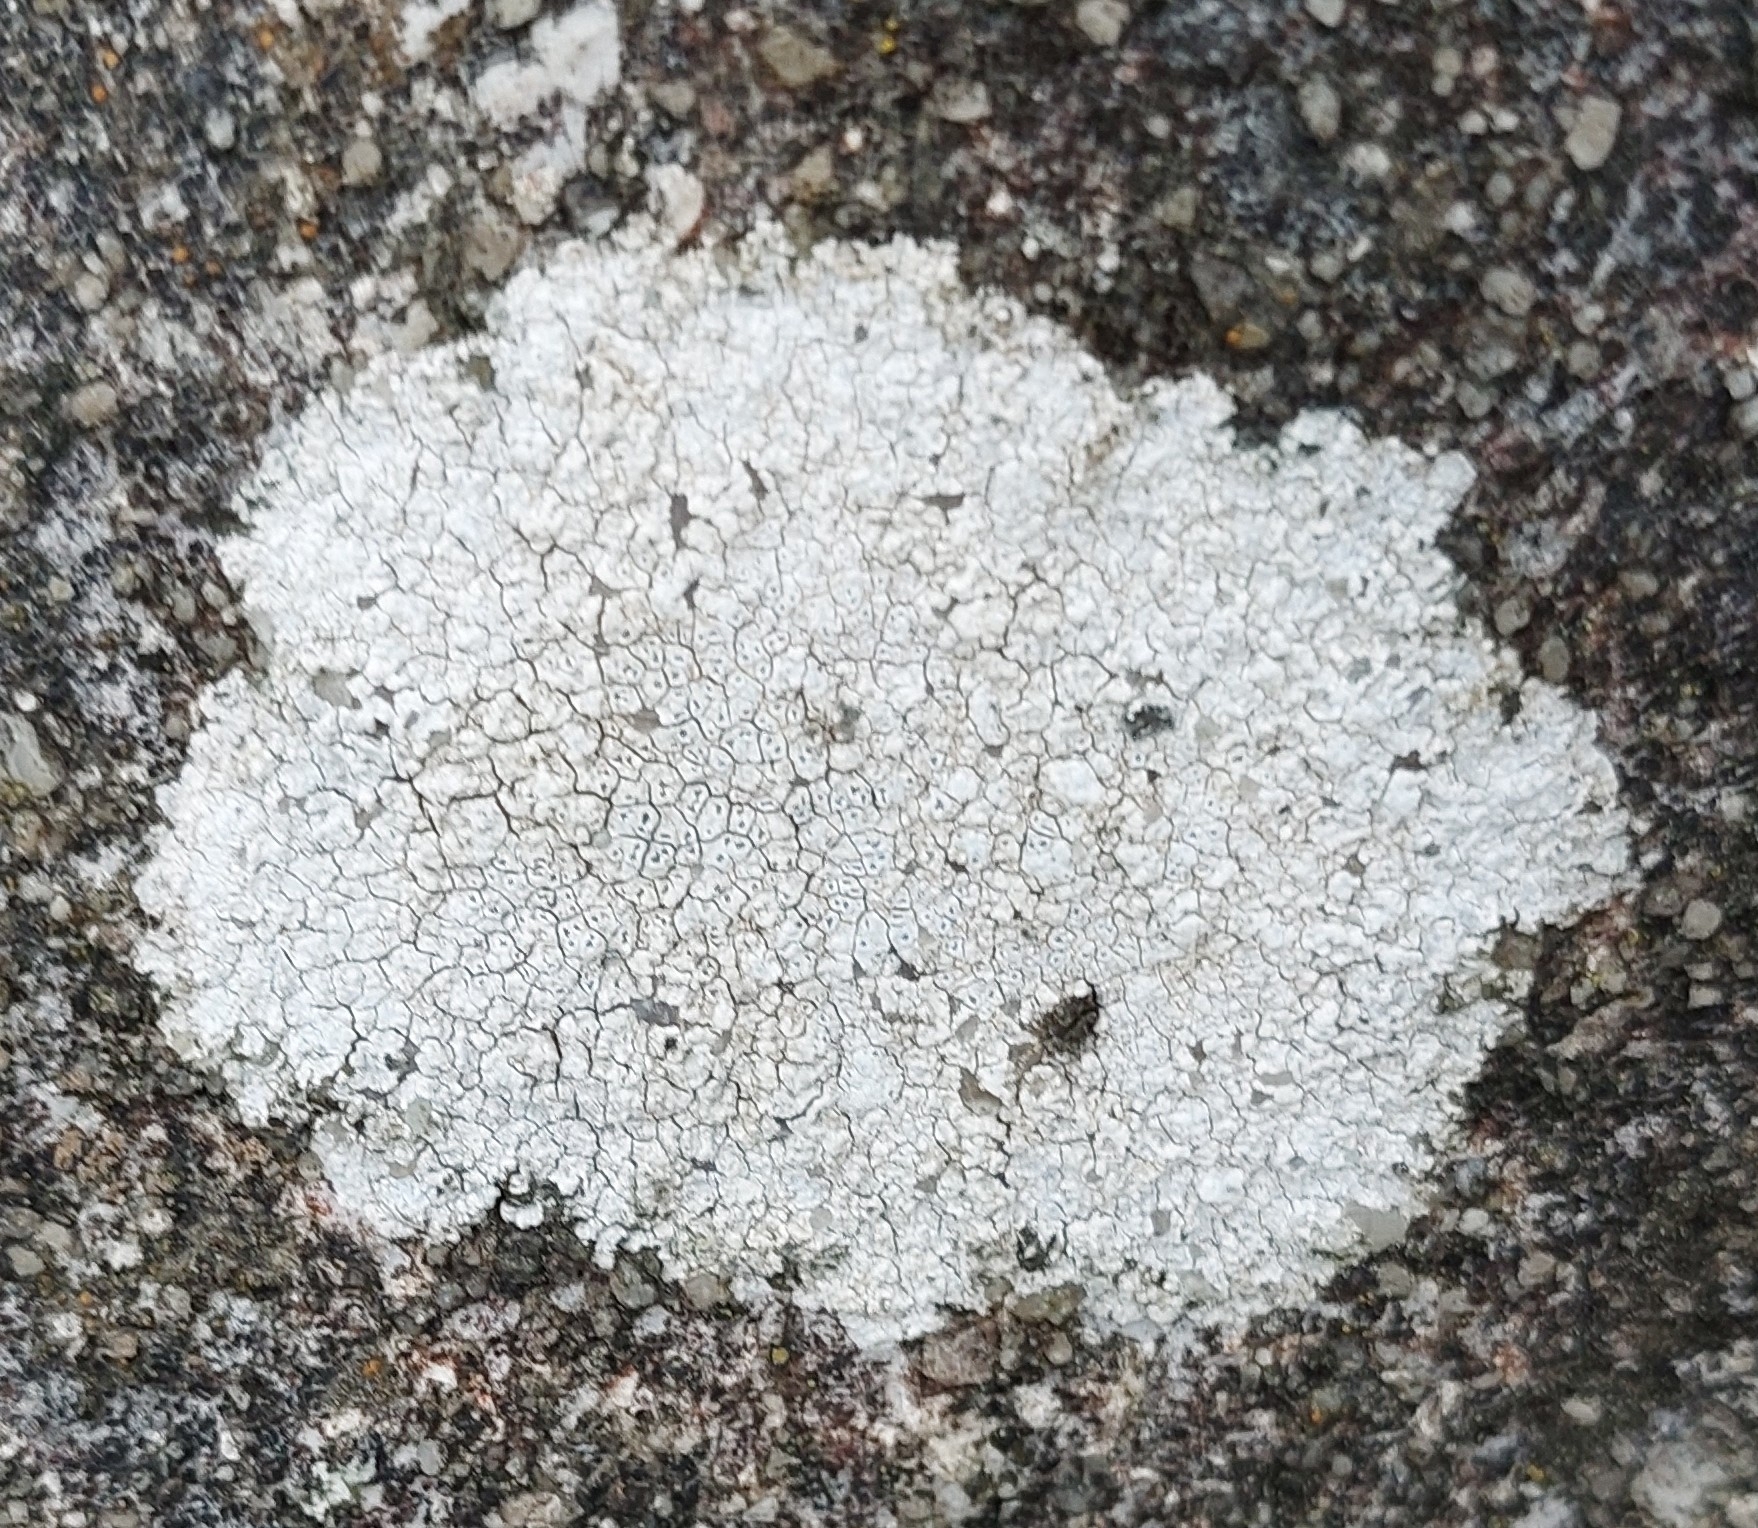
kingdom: Fungi
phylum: Ascomycota
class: Lecanoromycetes
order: Pertusariales
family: Megasporaceae
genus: Circinaria
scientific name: Circinaria calcarea
